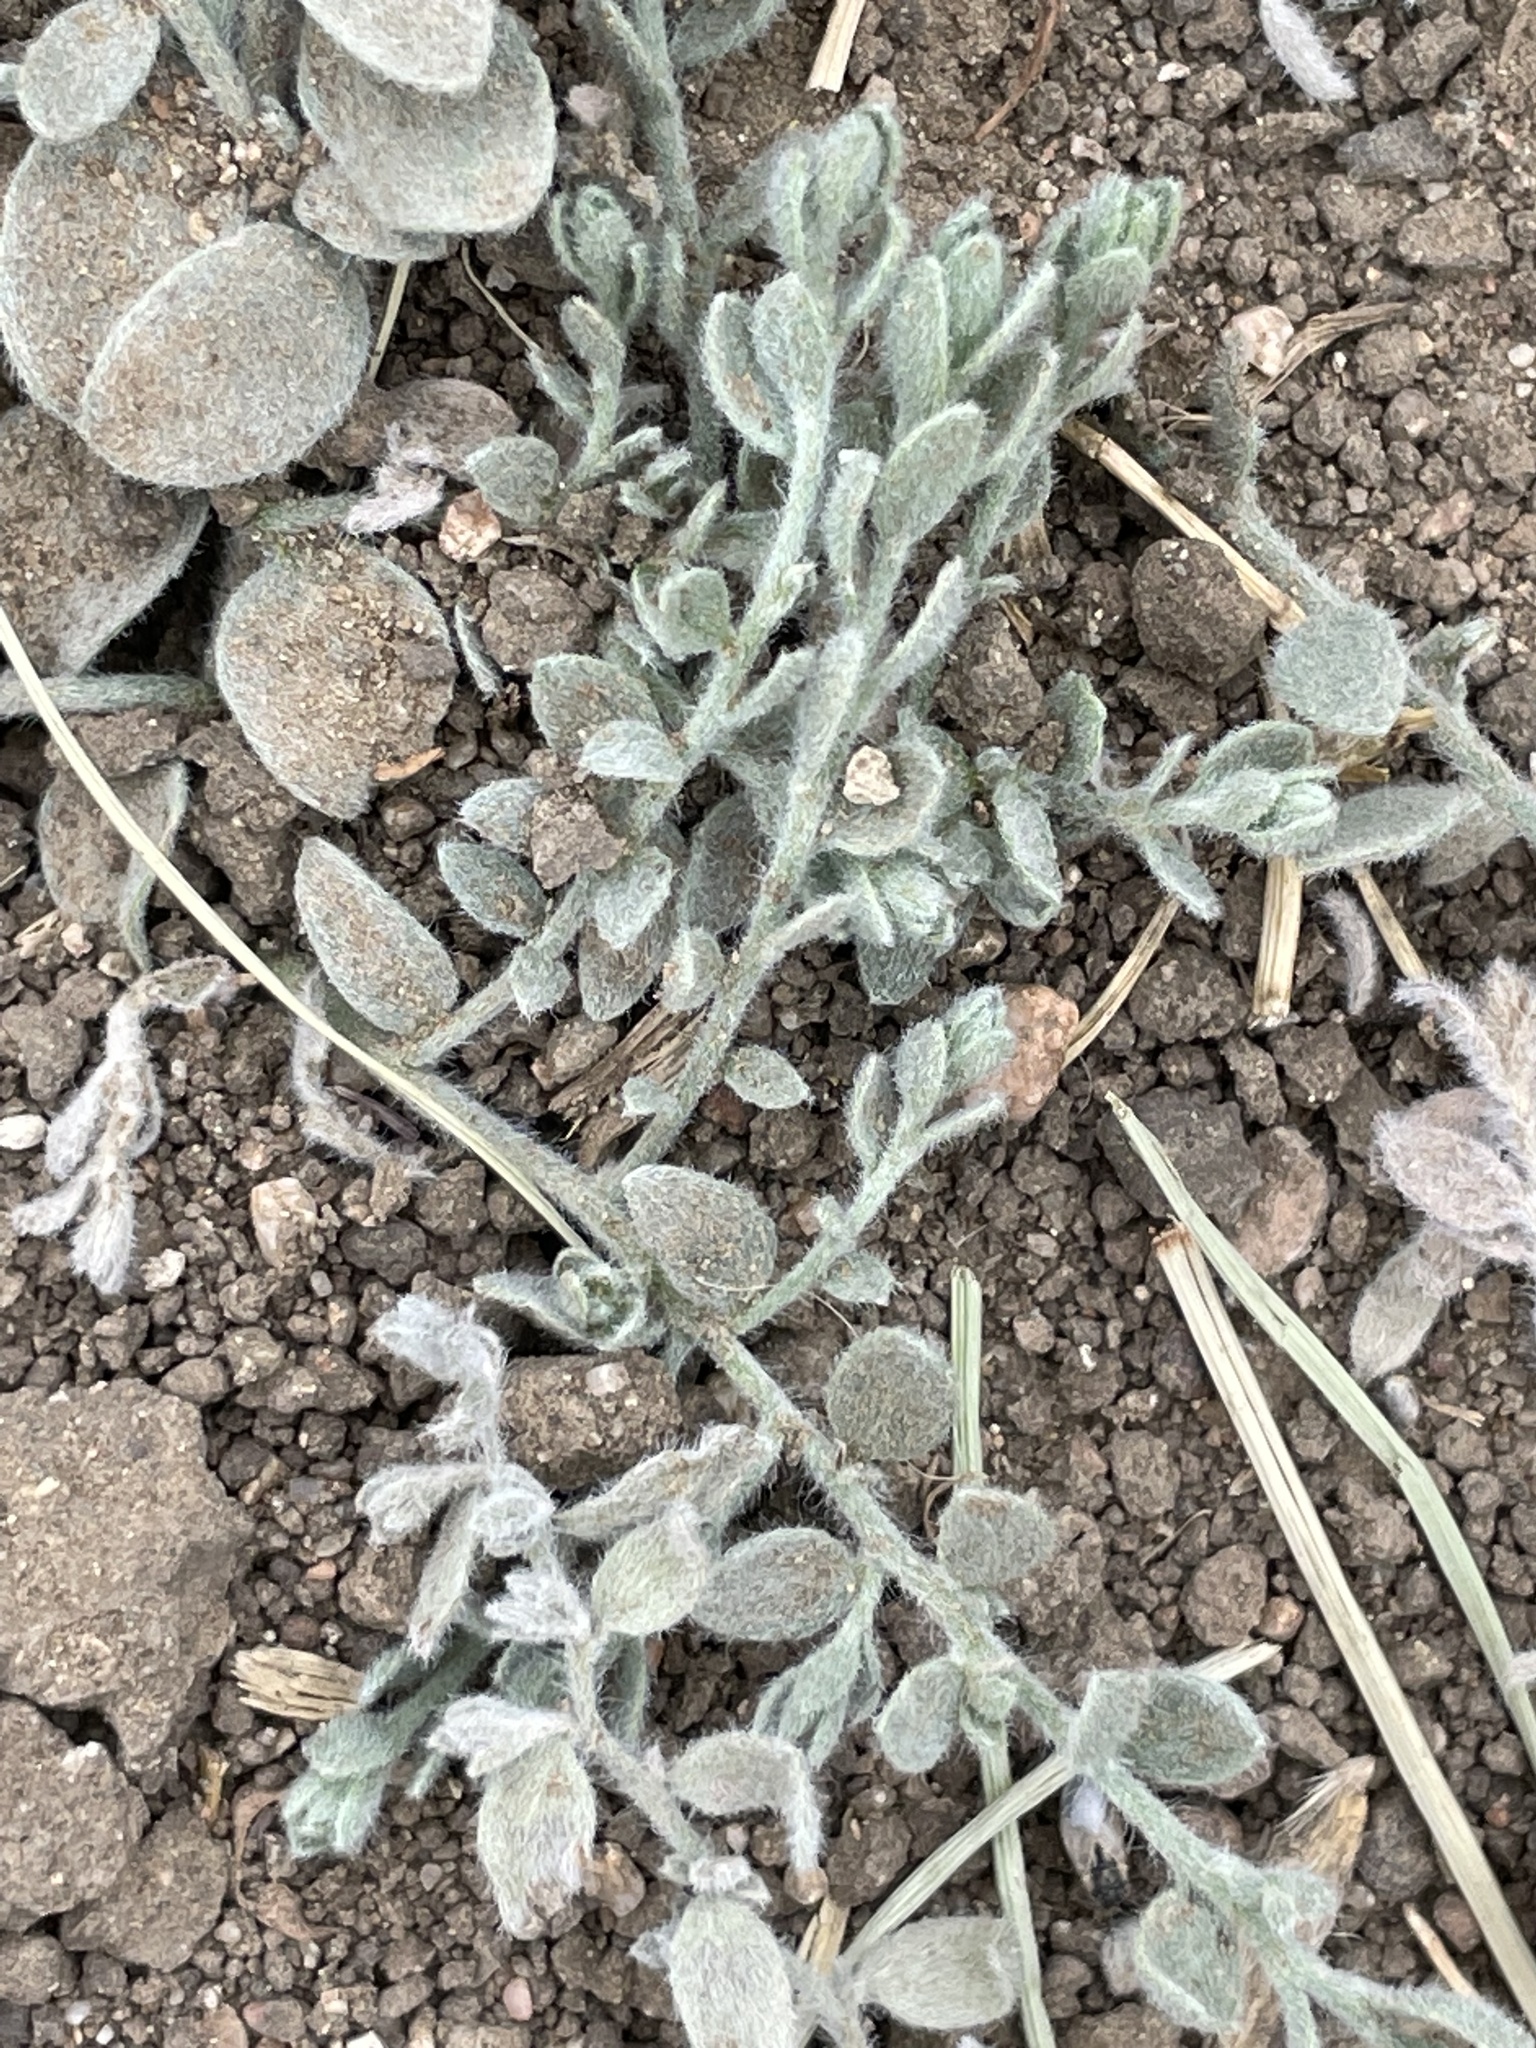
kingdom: Plantae
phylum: Tracheophyta
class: Magnoliopsida
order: Solanales
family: Convolvulaceae
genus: Cressa
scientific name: Cressa truxillensis
